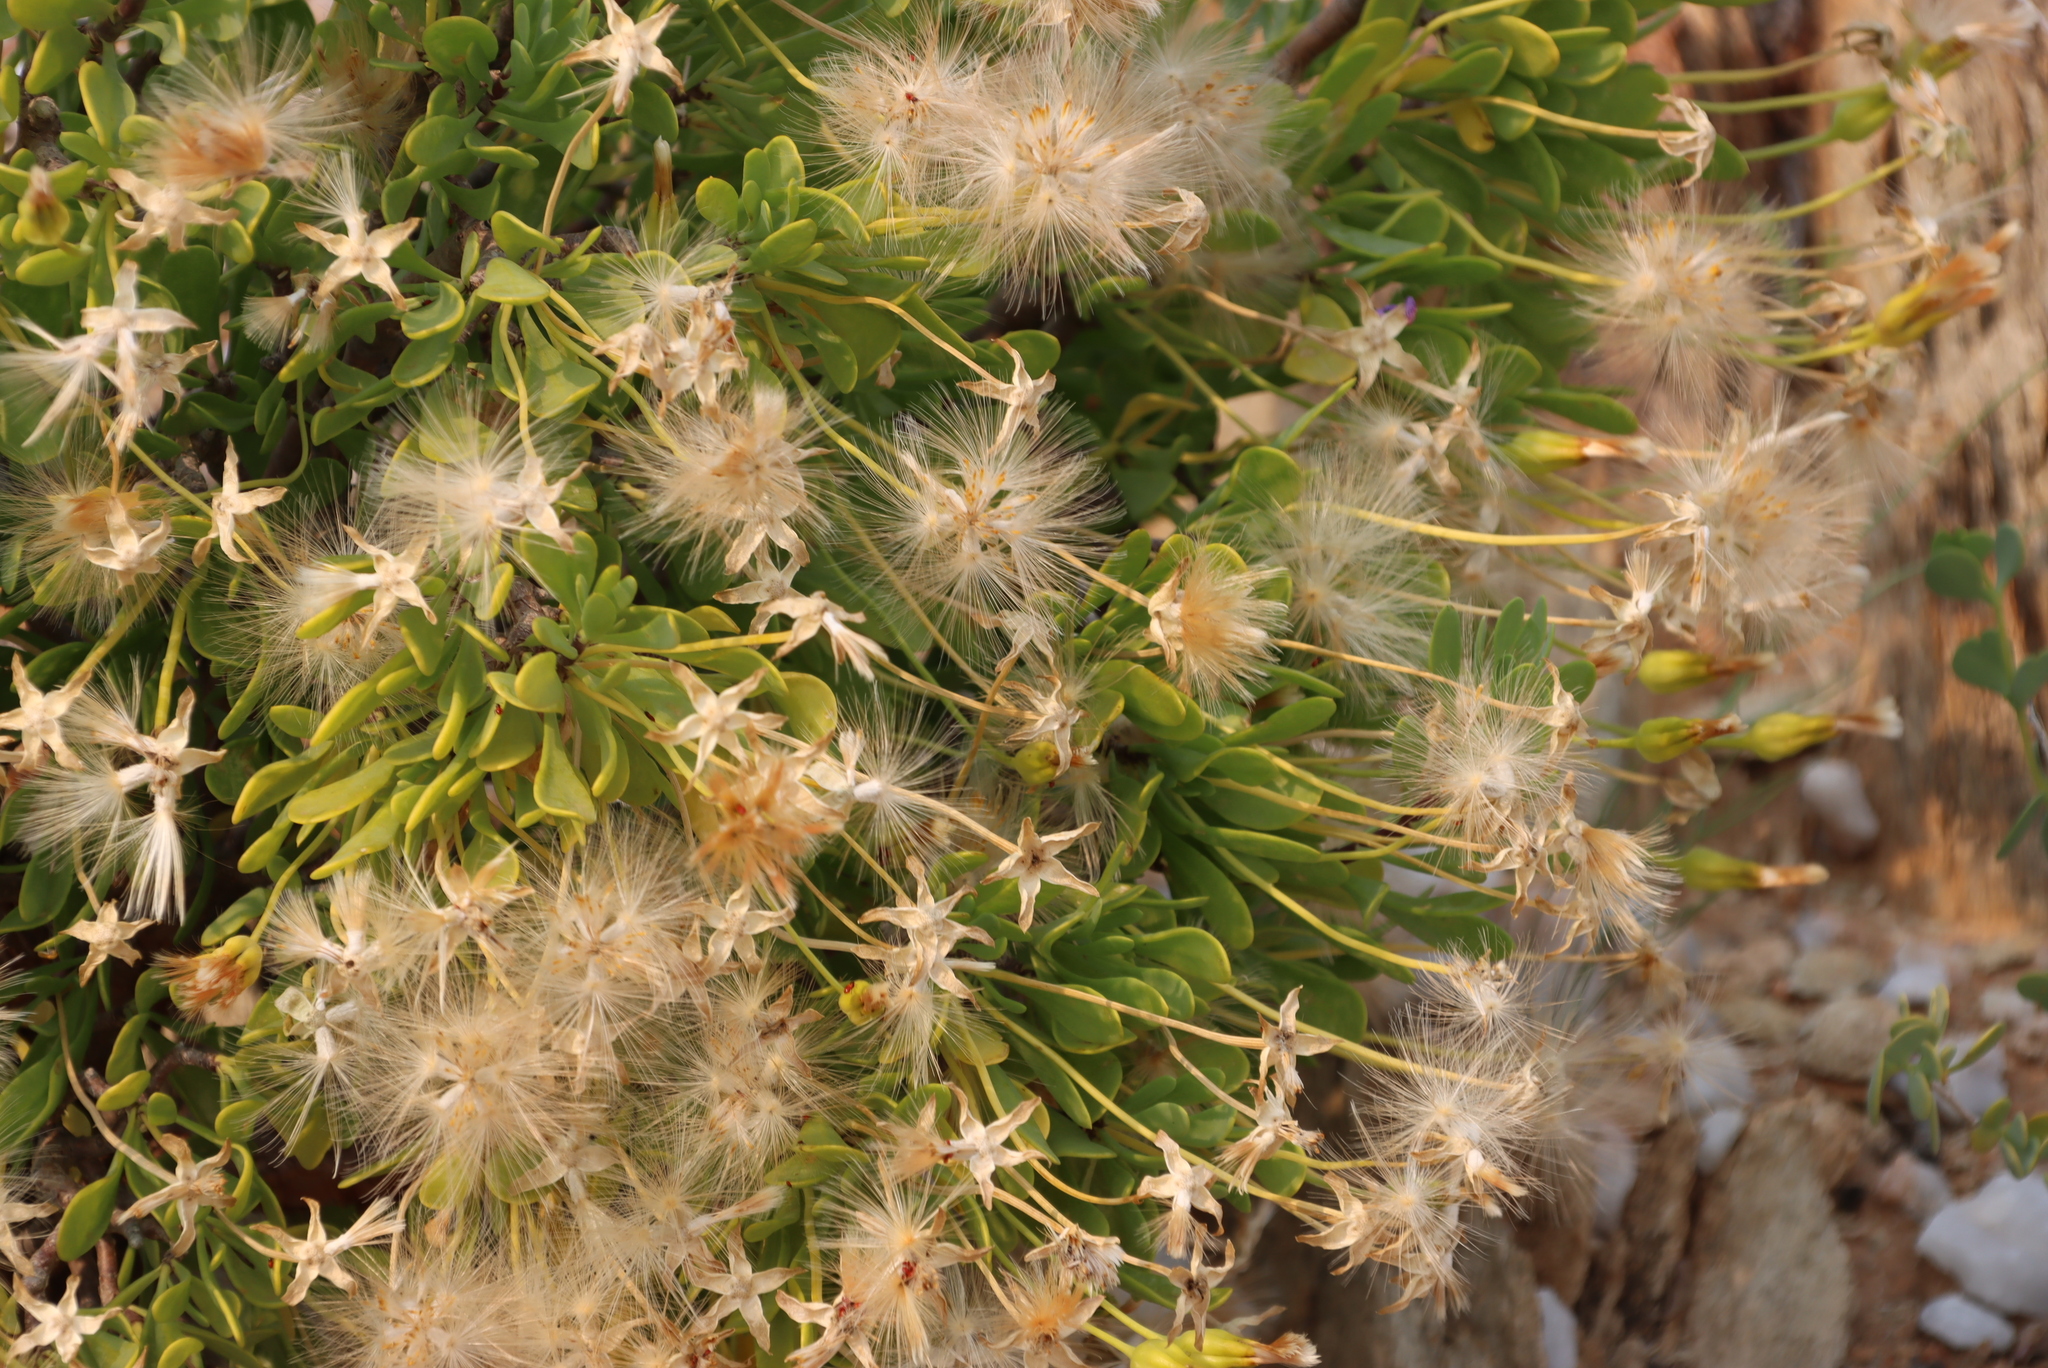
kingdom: Plantae
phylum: Tracheophyta
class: Magnoliopsida
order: Asterales
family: Asteraceae
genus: Othonna
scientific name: Othonna lasiocarpa
